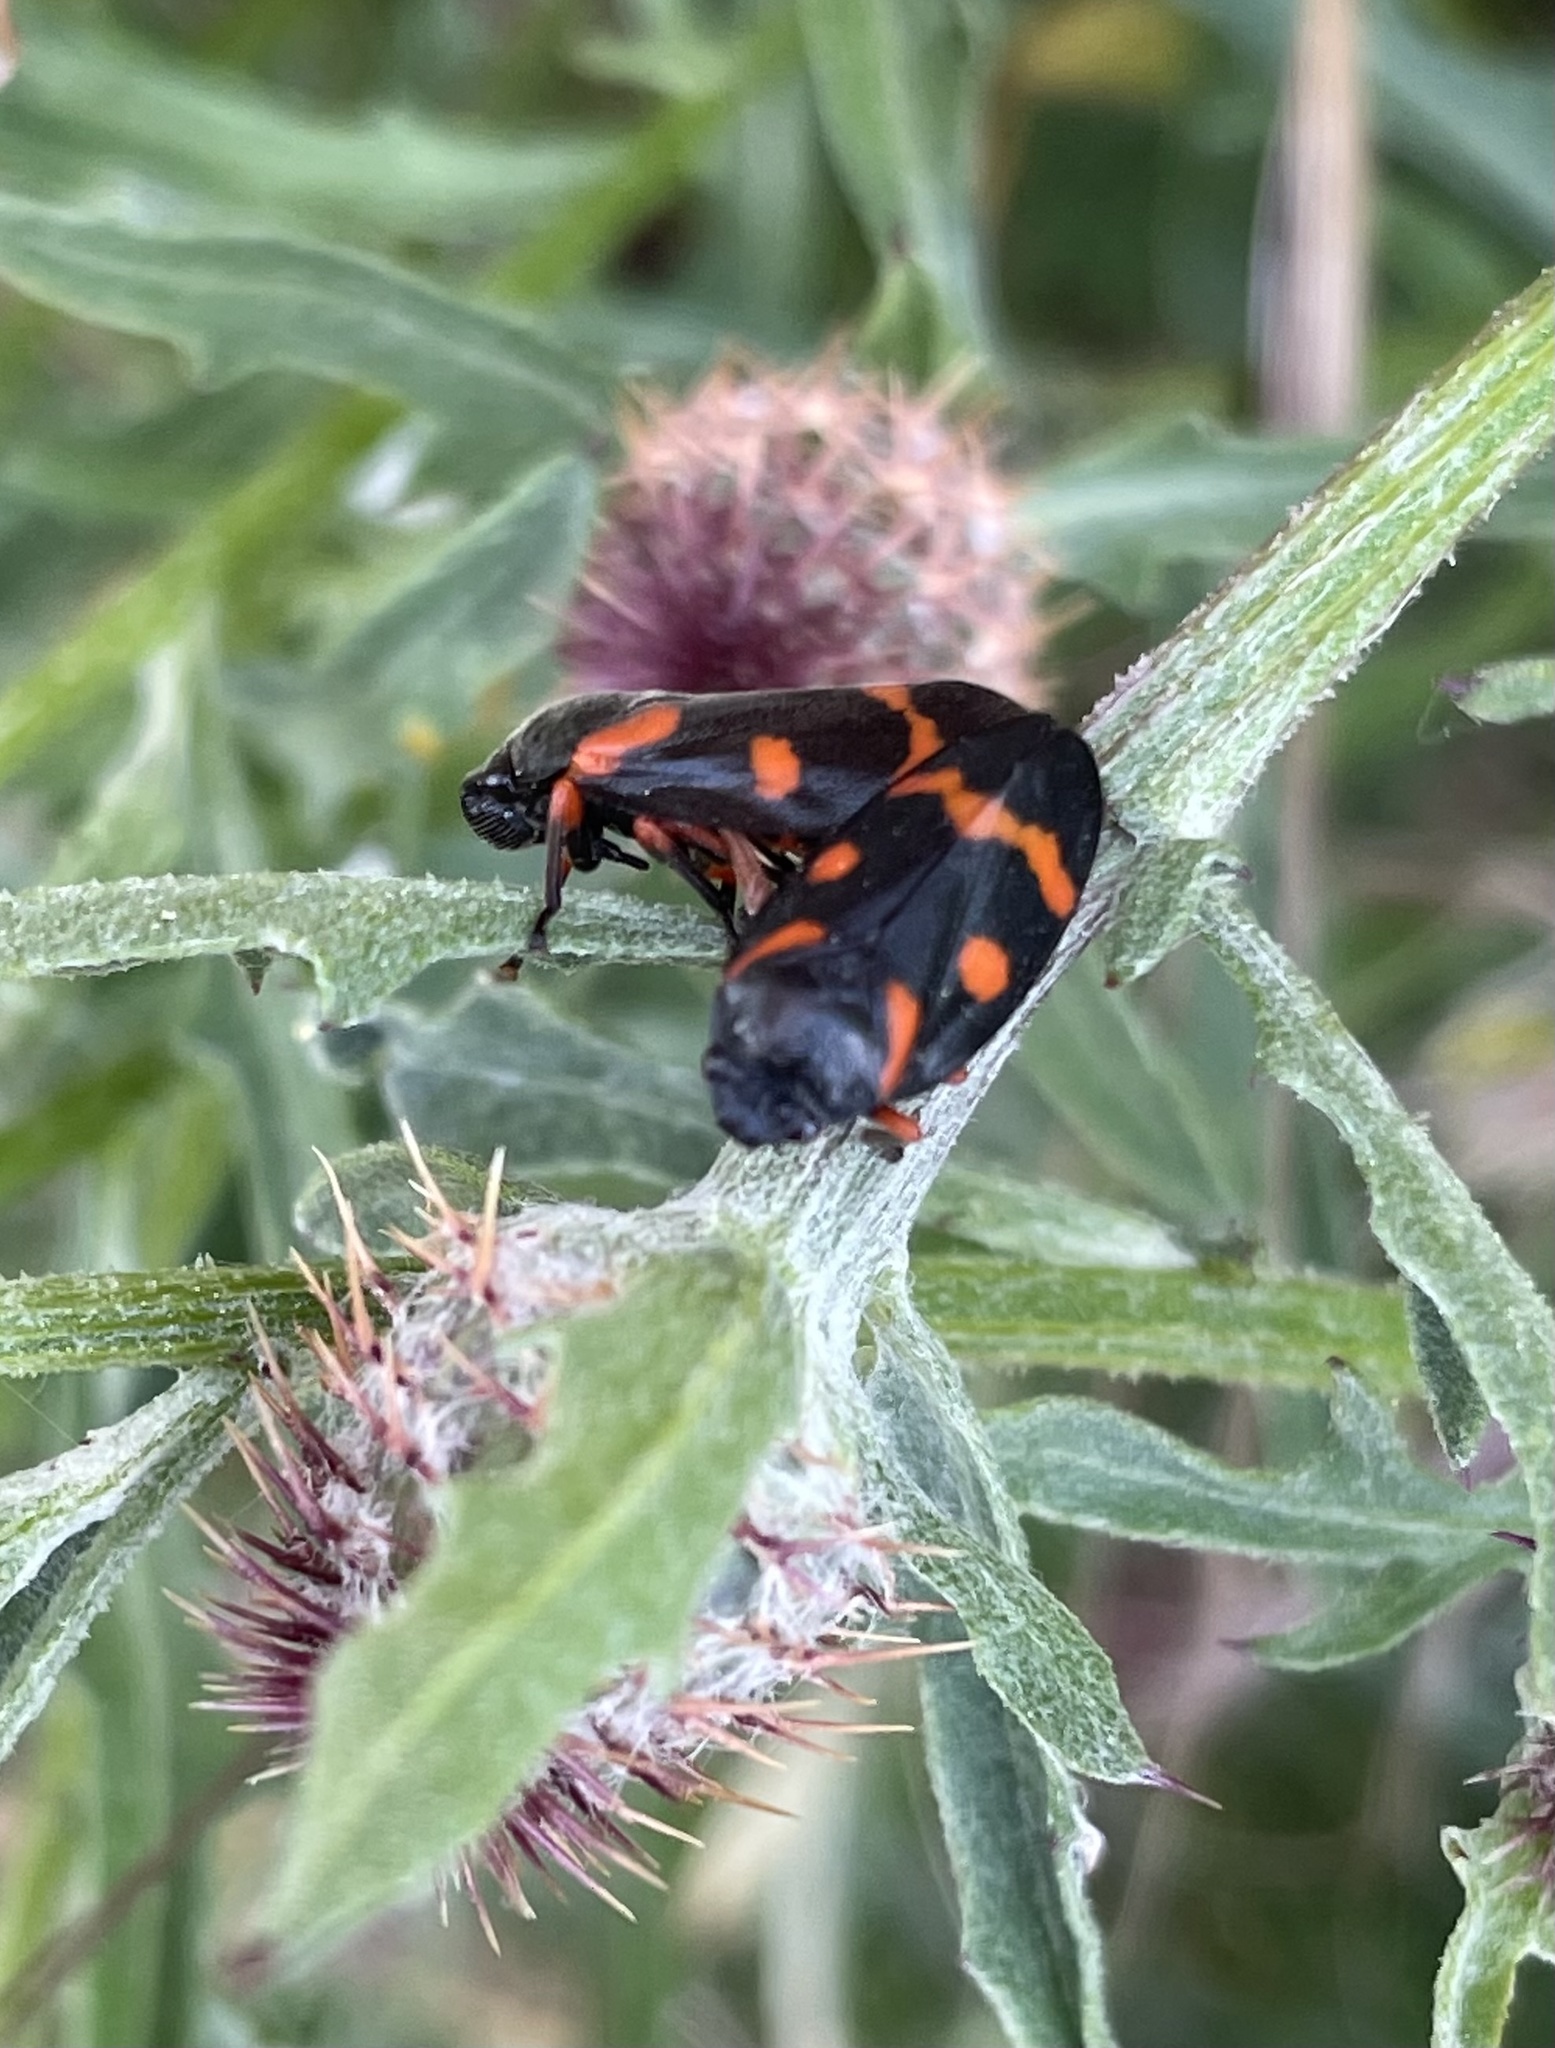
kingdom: Animalia
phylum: Arthropoda
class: Insecta
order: Hemiptera
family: Cercopidae
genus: Cercopis
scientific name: Cercopis intermedia
